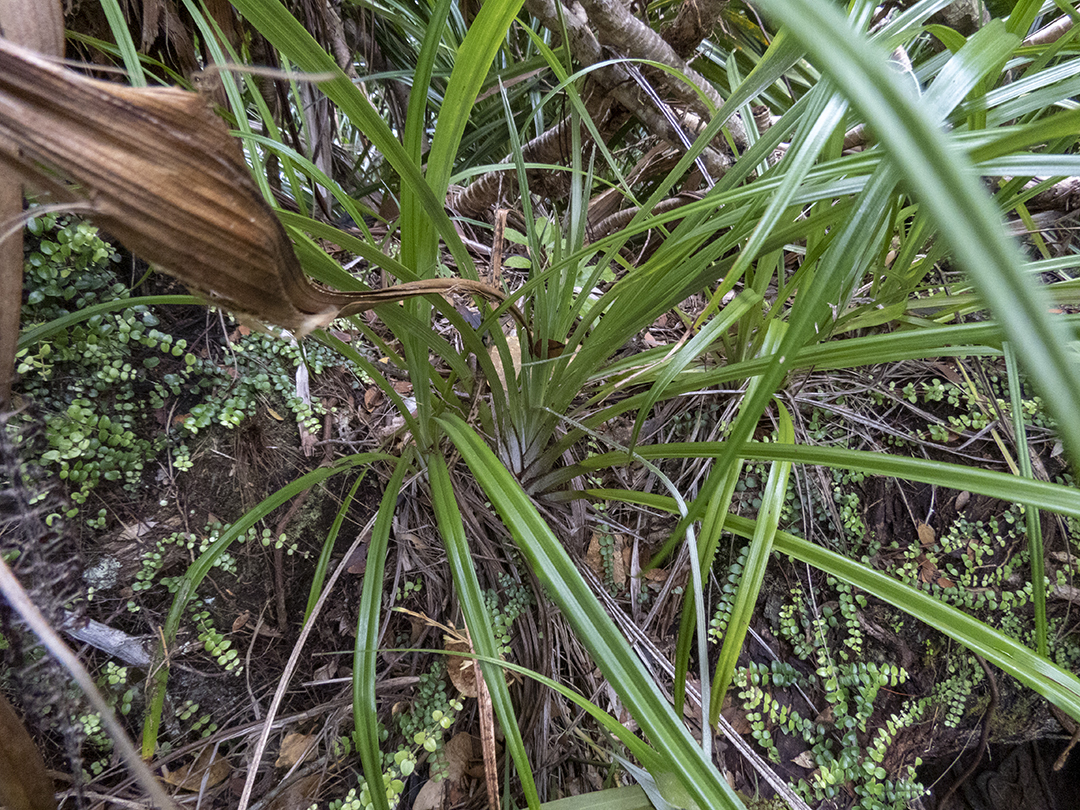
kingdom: Plantae
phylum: Tracheophyta
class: Liliopsida
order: Asparagales
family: Asteliaceae
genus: Astelia
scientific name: Astelia solandri
